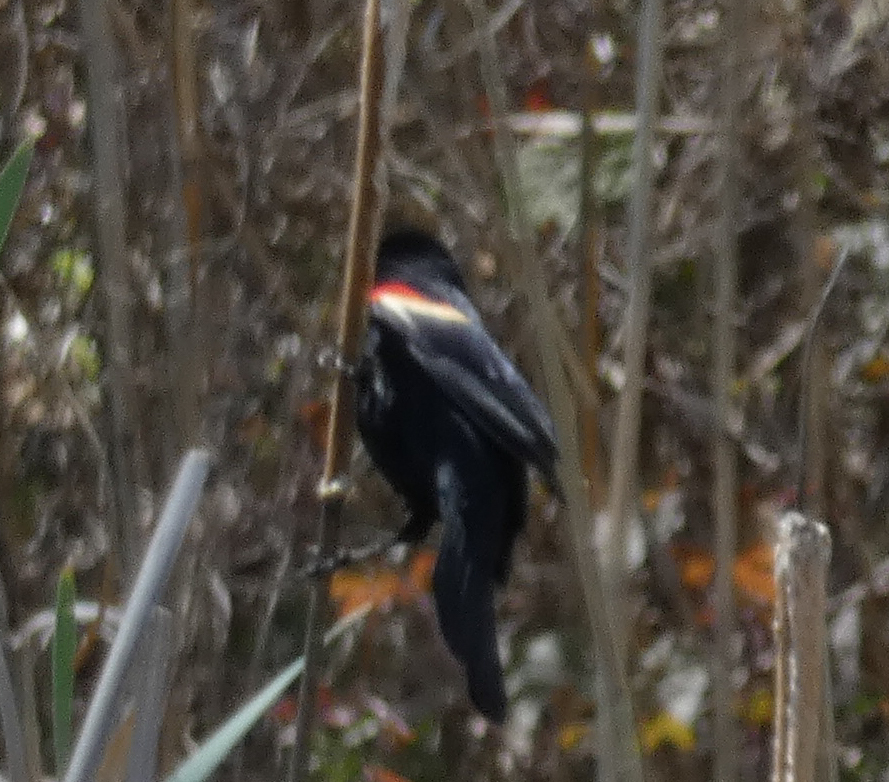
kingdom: Animalia
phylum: Chordata
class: Aves
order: Passeriformes
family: Icteridae
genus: Agelaius
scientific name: Agelaius phoeniceus
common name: Red-winged blackbird
